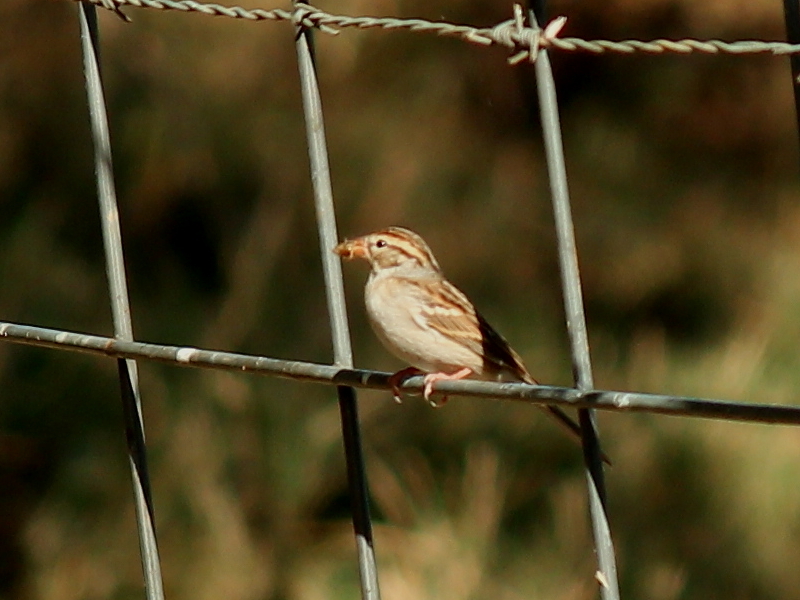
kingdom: Animalia
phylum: Chordata
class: Aves
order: Passeriformes
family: Passerellidae
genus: Spizella
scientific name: Spizella passerina
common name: Chipping sparrow
